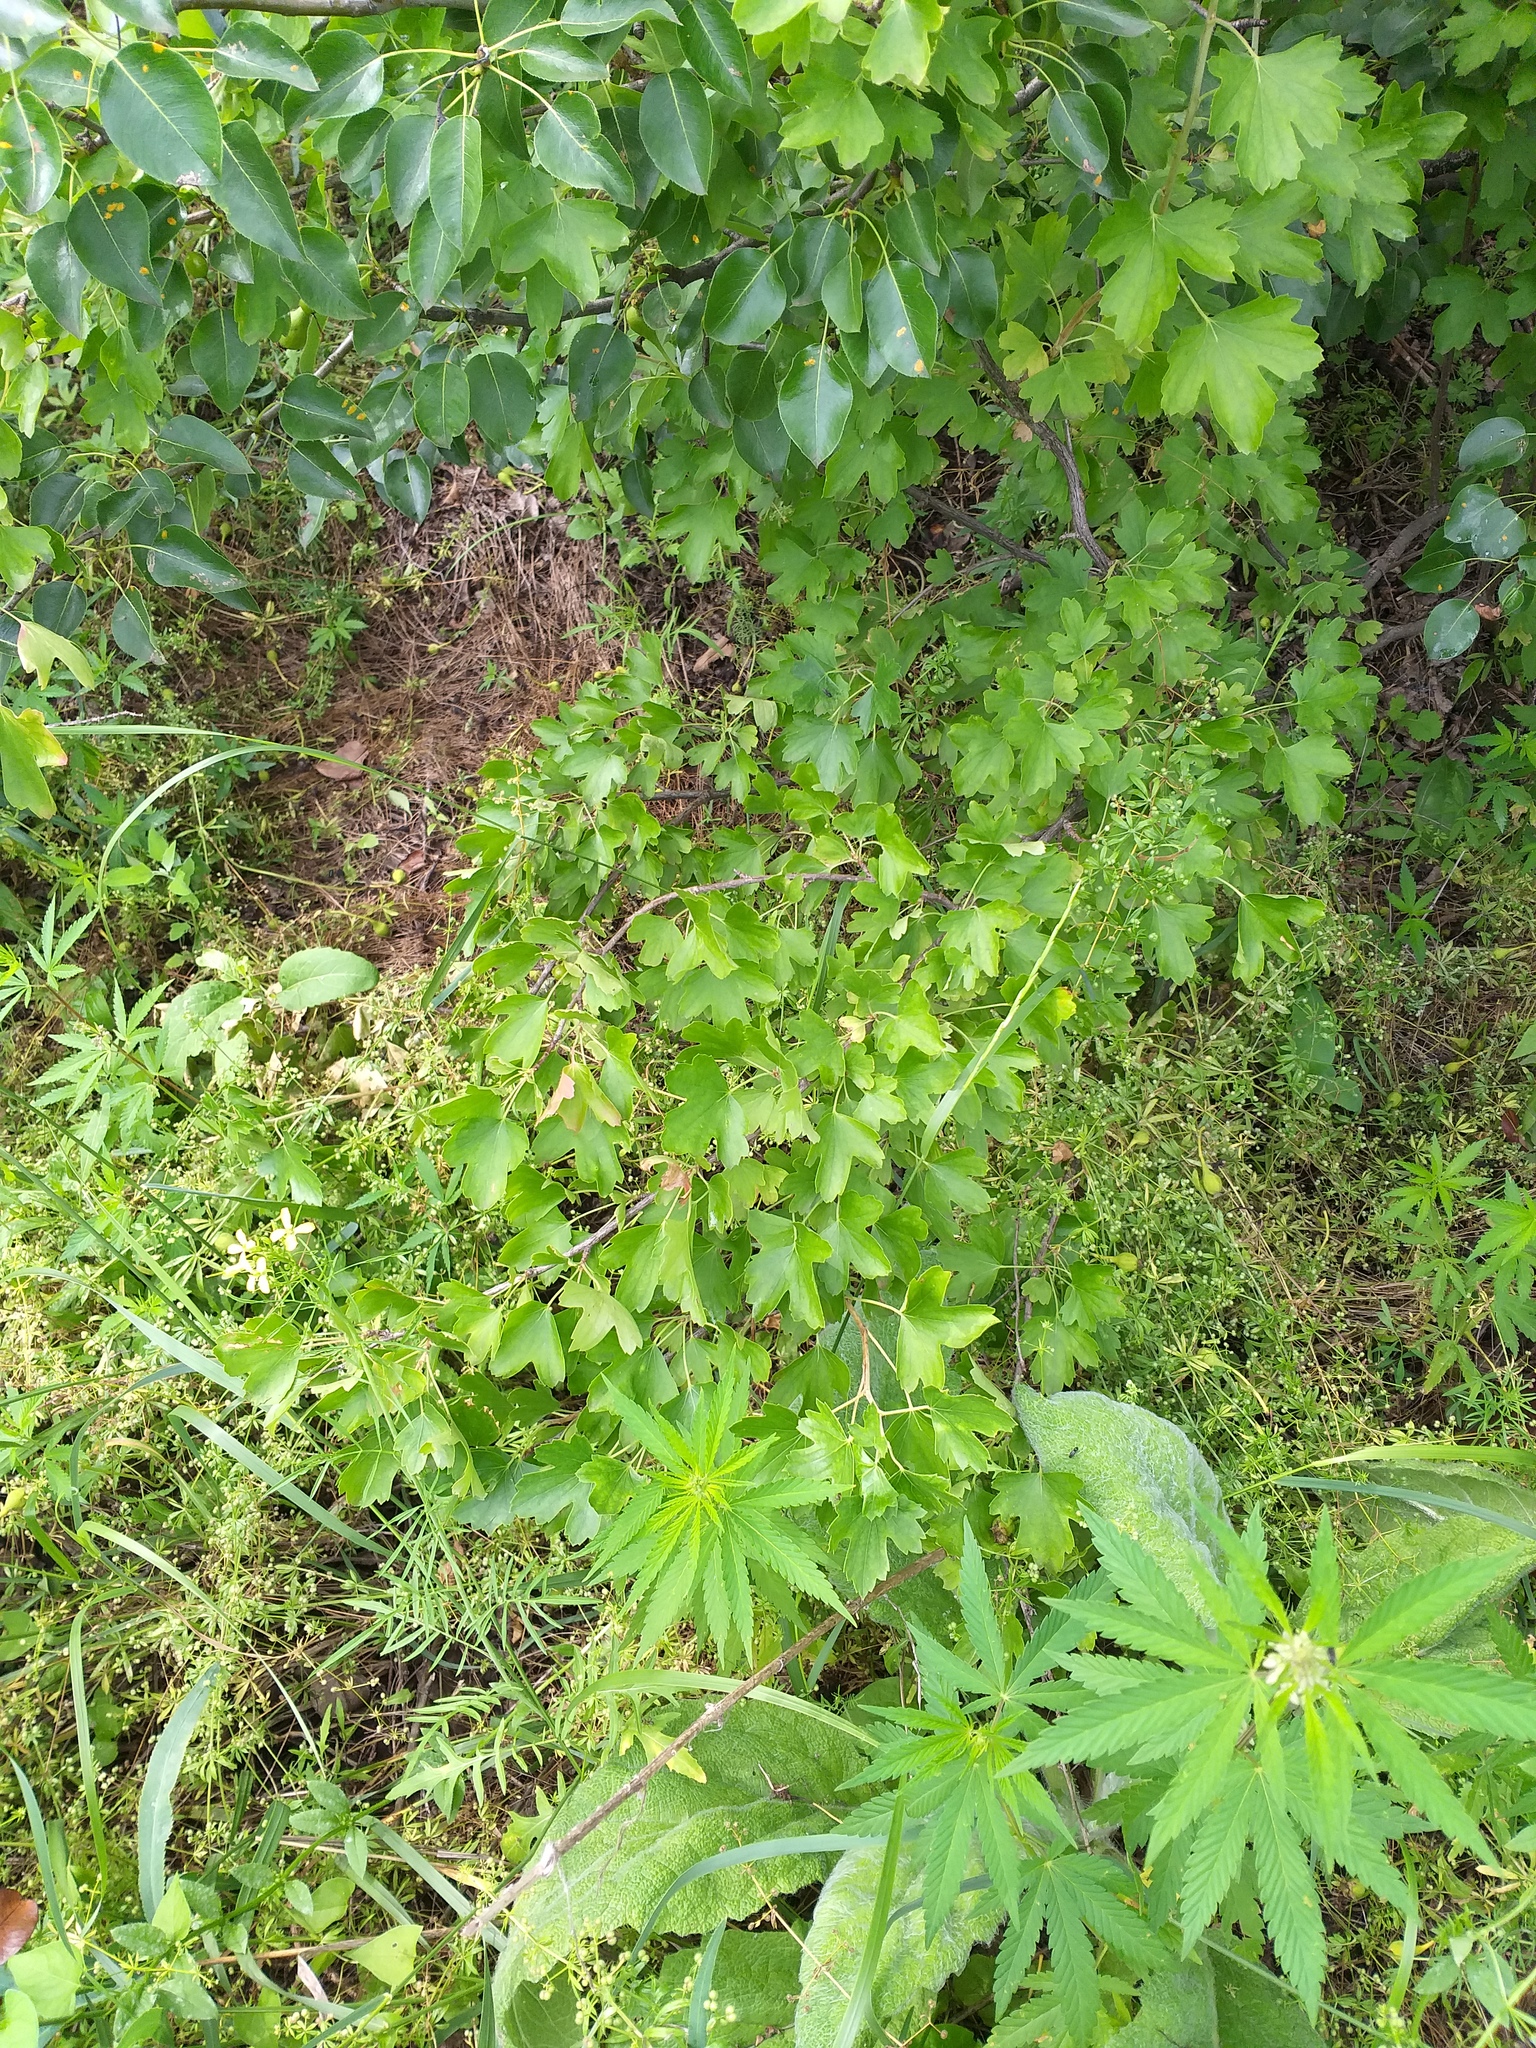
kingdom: Plantae
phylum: Tracheophyta
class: Magnoliopsida
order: Saxifragales
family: Grossulariaceae
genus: Ribes
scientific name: Ribes aureum
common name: Golden currant
